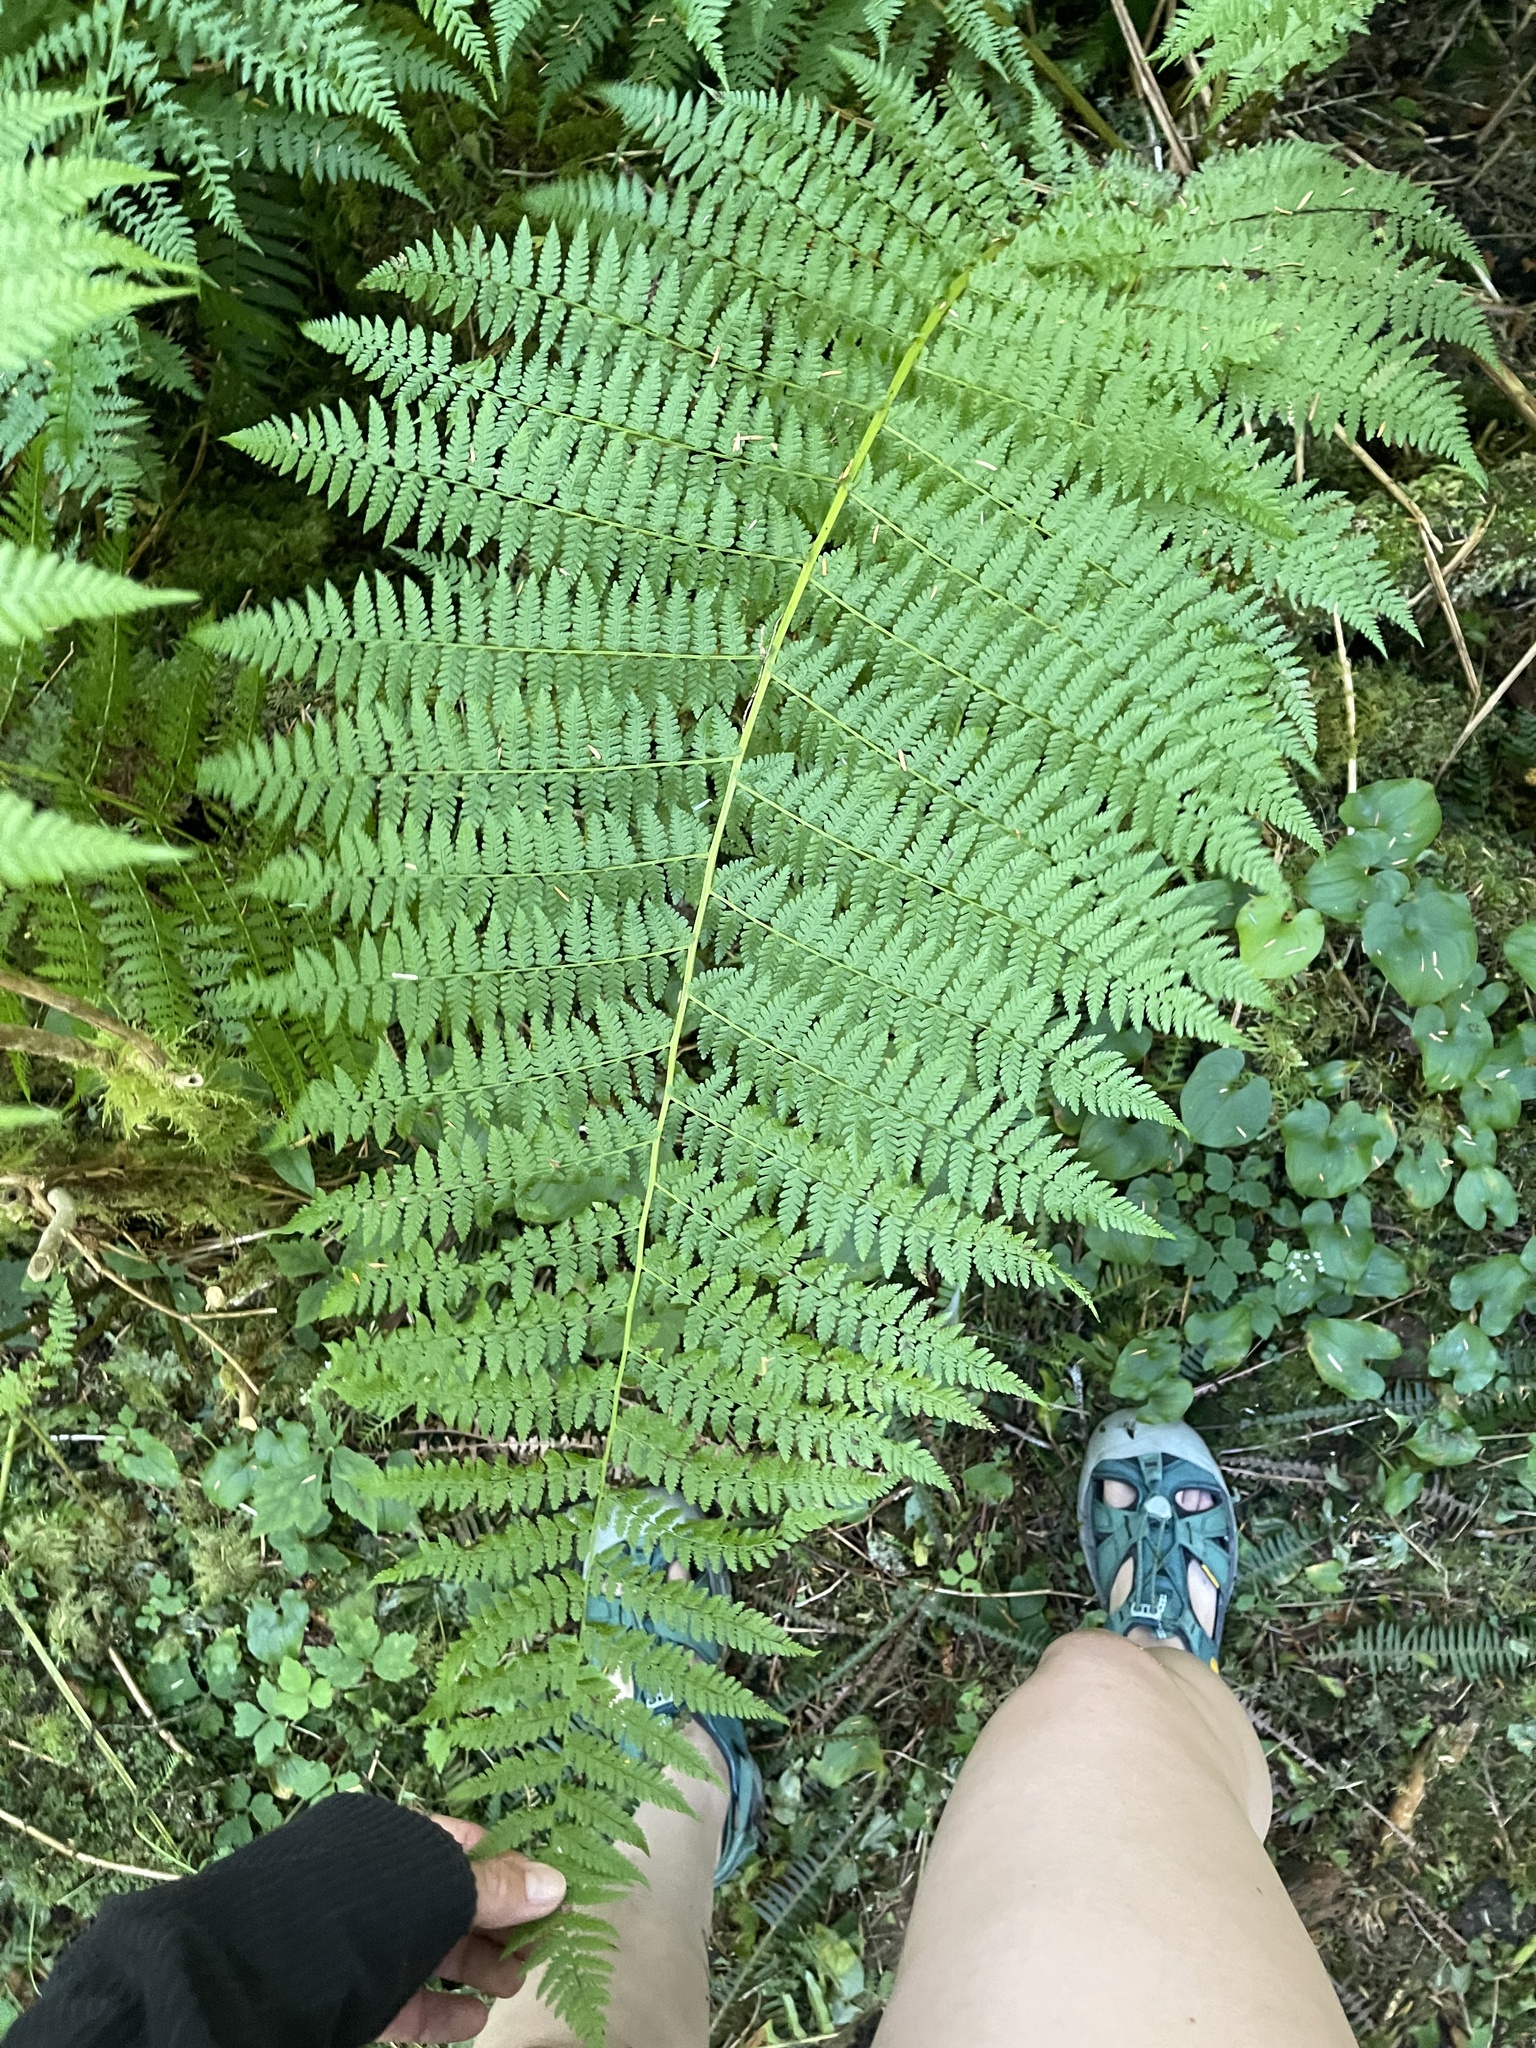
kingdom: Plantae
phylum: Tracheophyta
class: Polypodiopsida
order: Polypodiales
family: Athyriaceae
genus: Athyrium
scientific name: Athyrium filix-femina
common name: Lady fern
